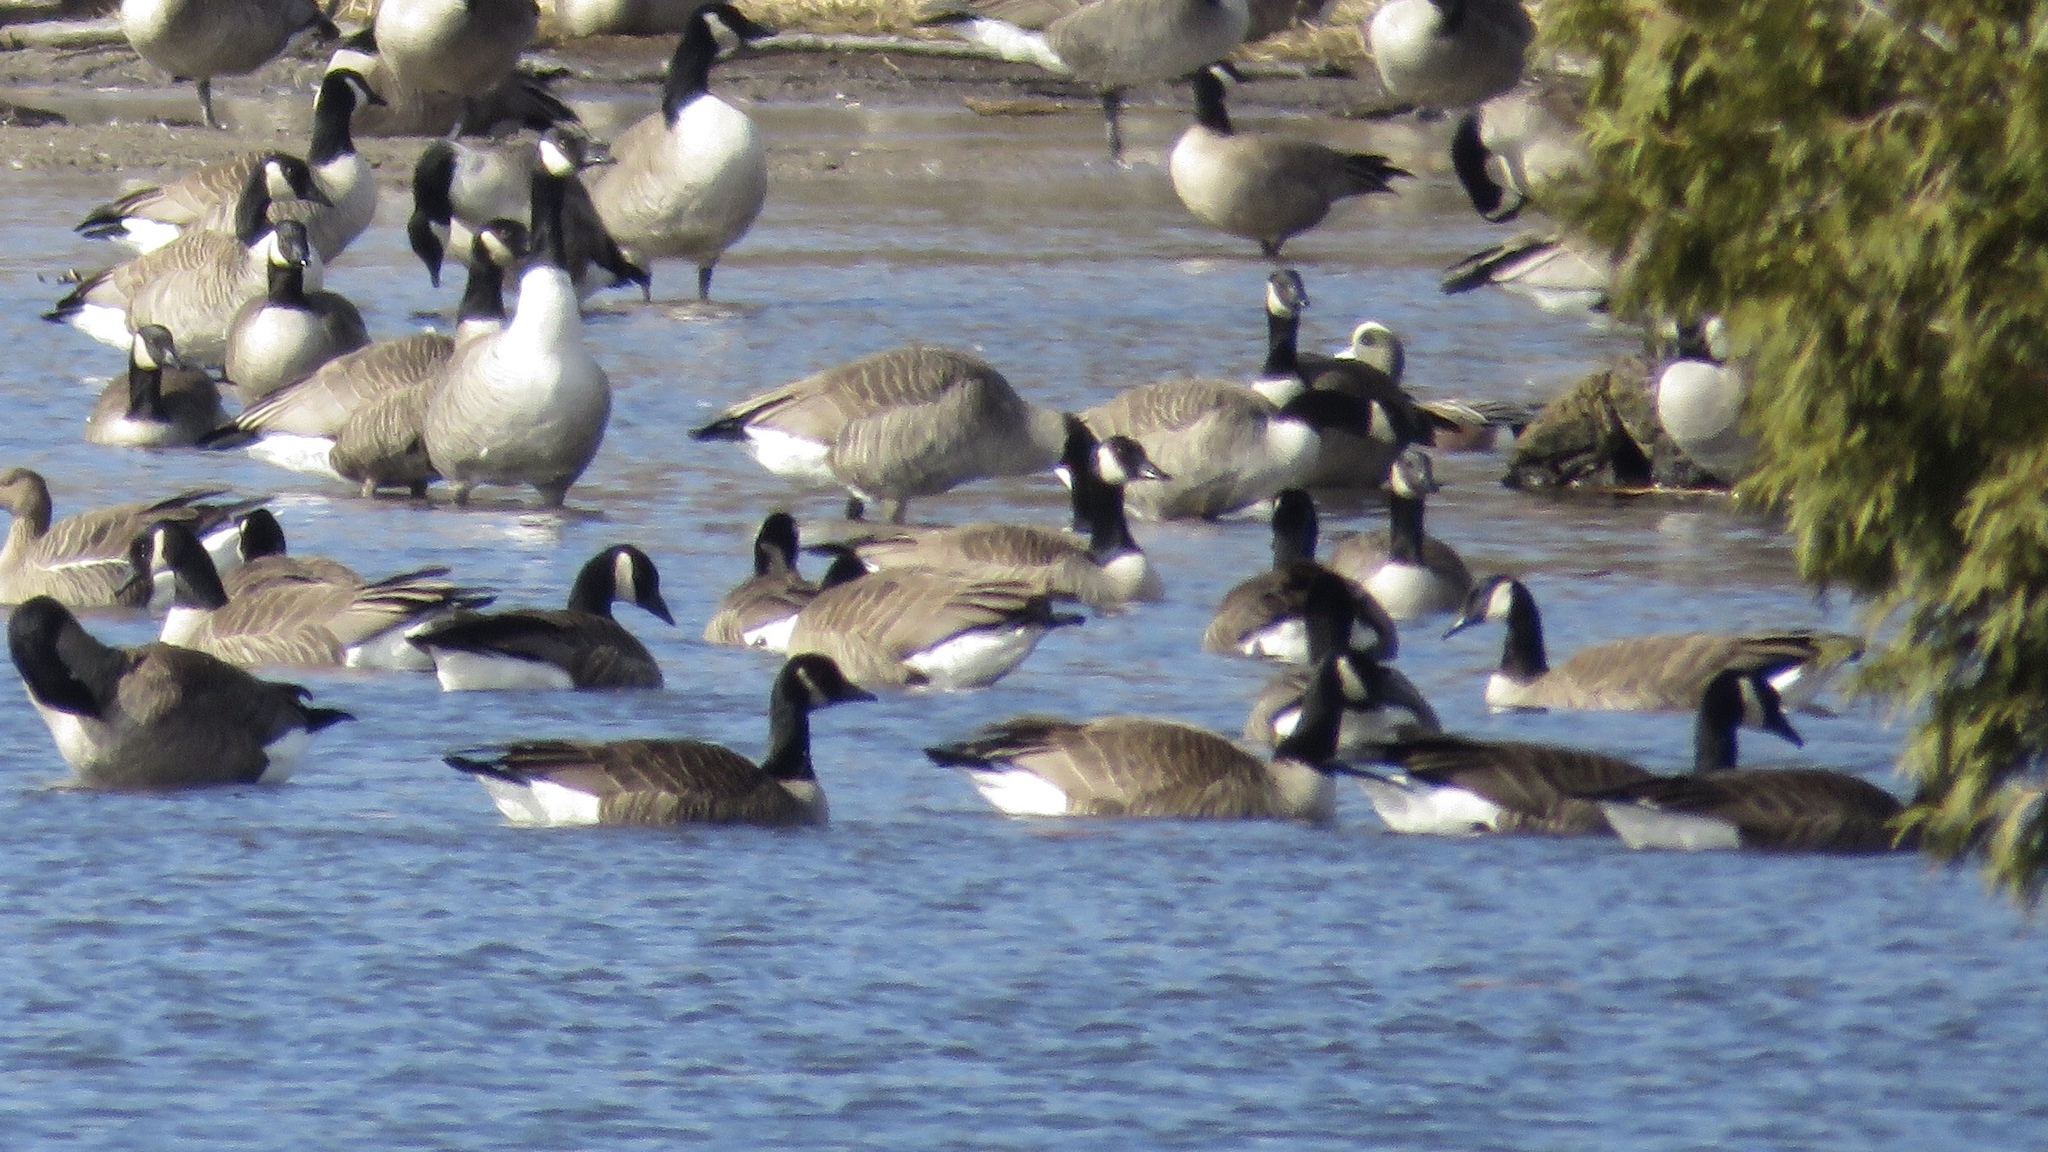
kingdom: Animalia
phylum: Chordata
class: Aves
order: Anseriformes
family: Anatidae
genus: Branta
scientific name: Branta canadensis
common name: Canada goose
